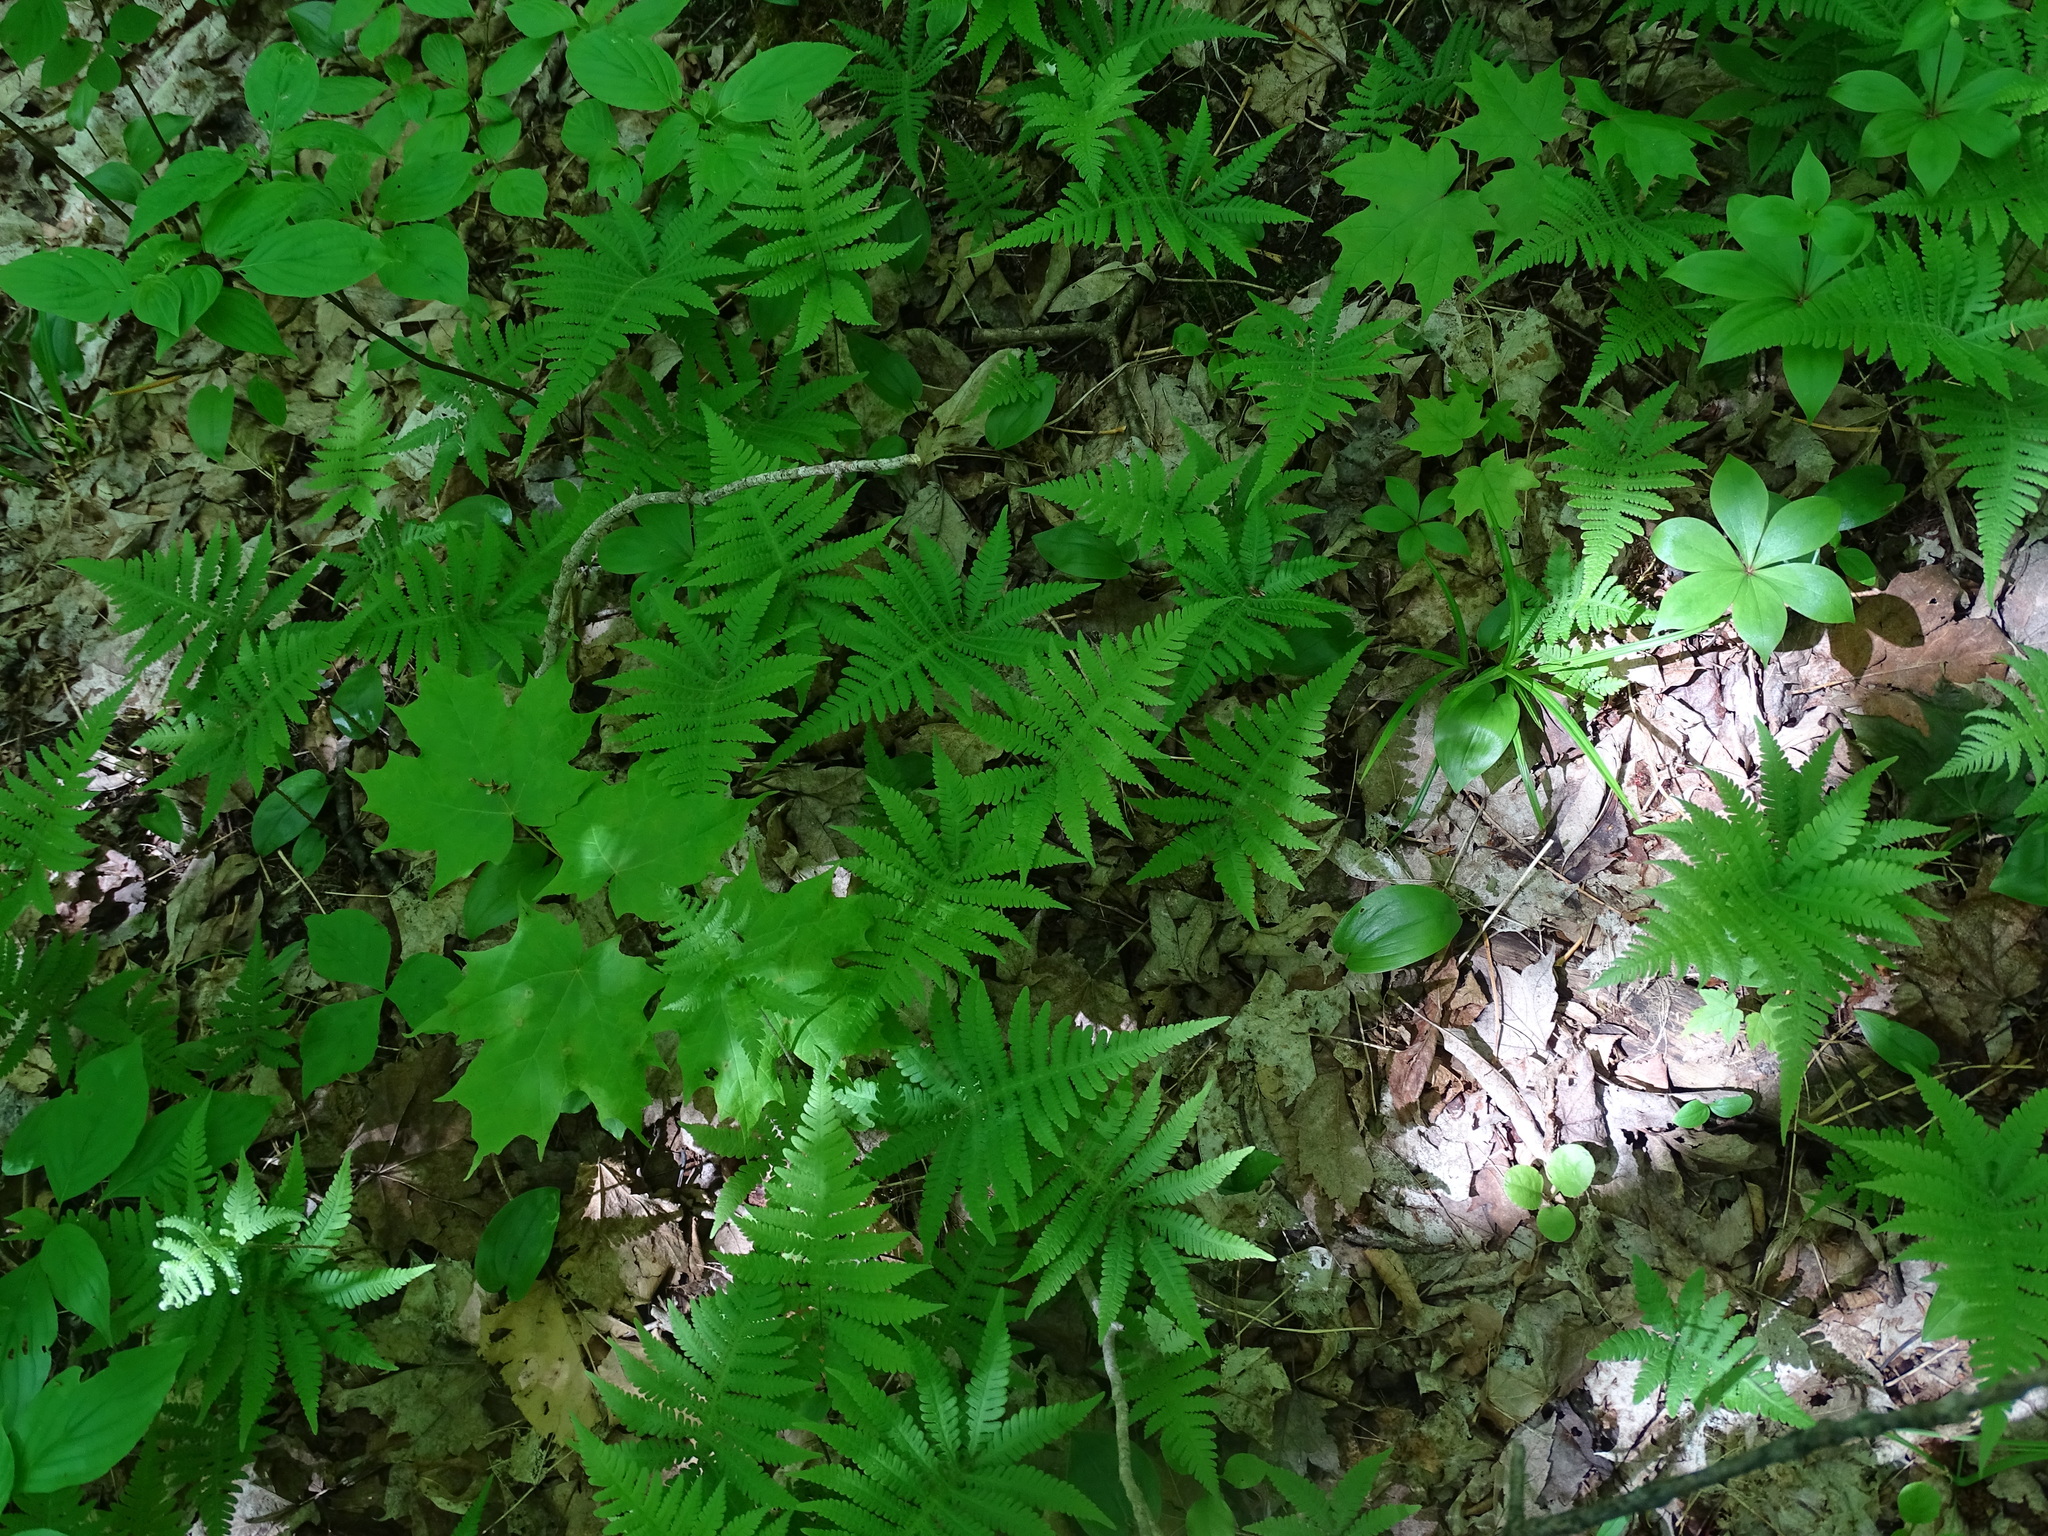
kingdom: Plantae
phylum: Tracheophyta
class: Polypodiopsida
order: Polypodiales
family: Thelypteridaceae
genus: Phegopteris
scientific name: Phegopteris connectilis
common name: Beech fern
